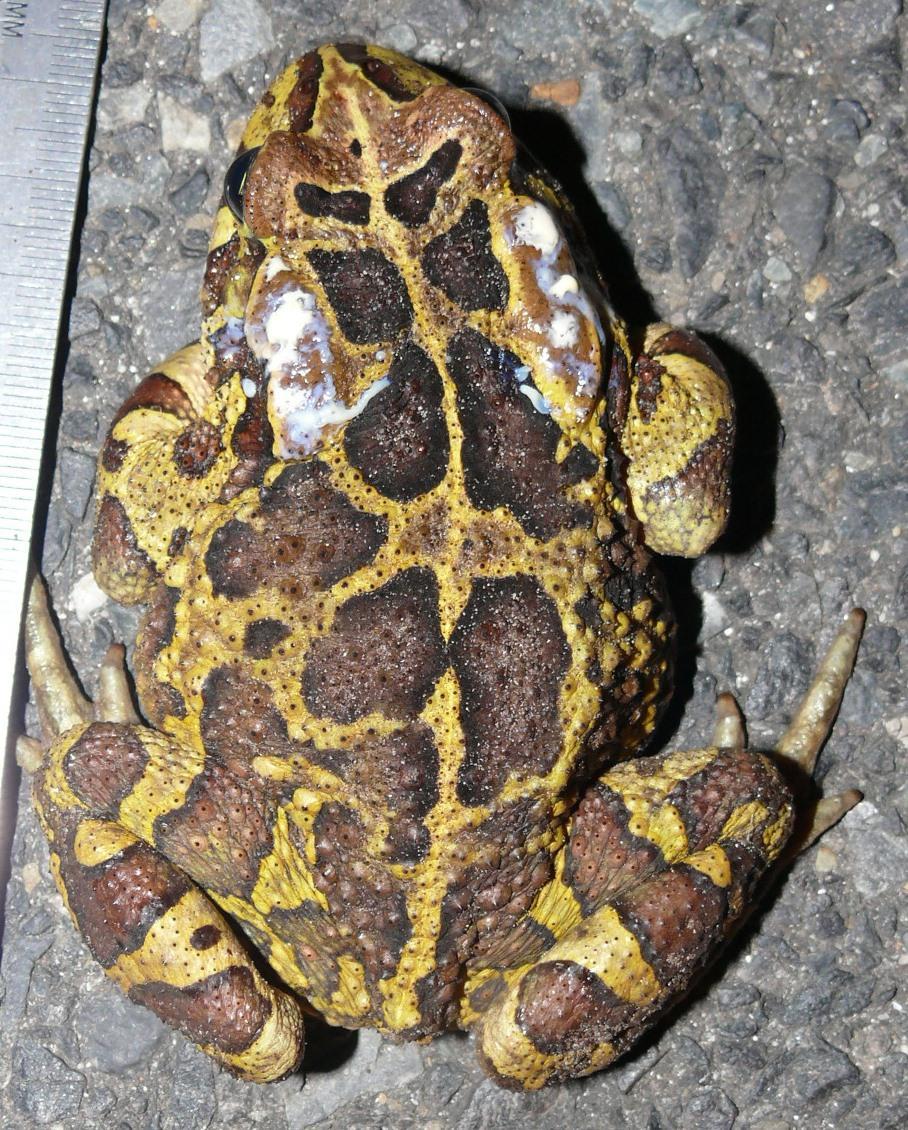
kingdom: Animalia
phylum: Chordata
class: Amphibia
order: Anura
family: Bufonidae
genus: Sclerophrys
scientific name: Sclerophrys pantherina
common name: Panther toad
